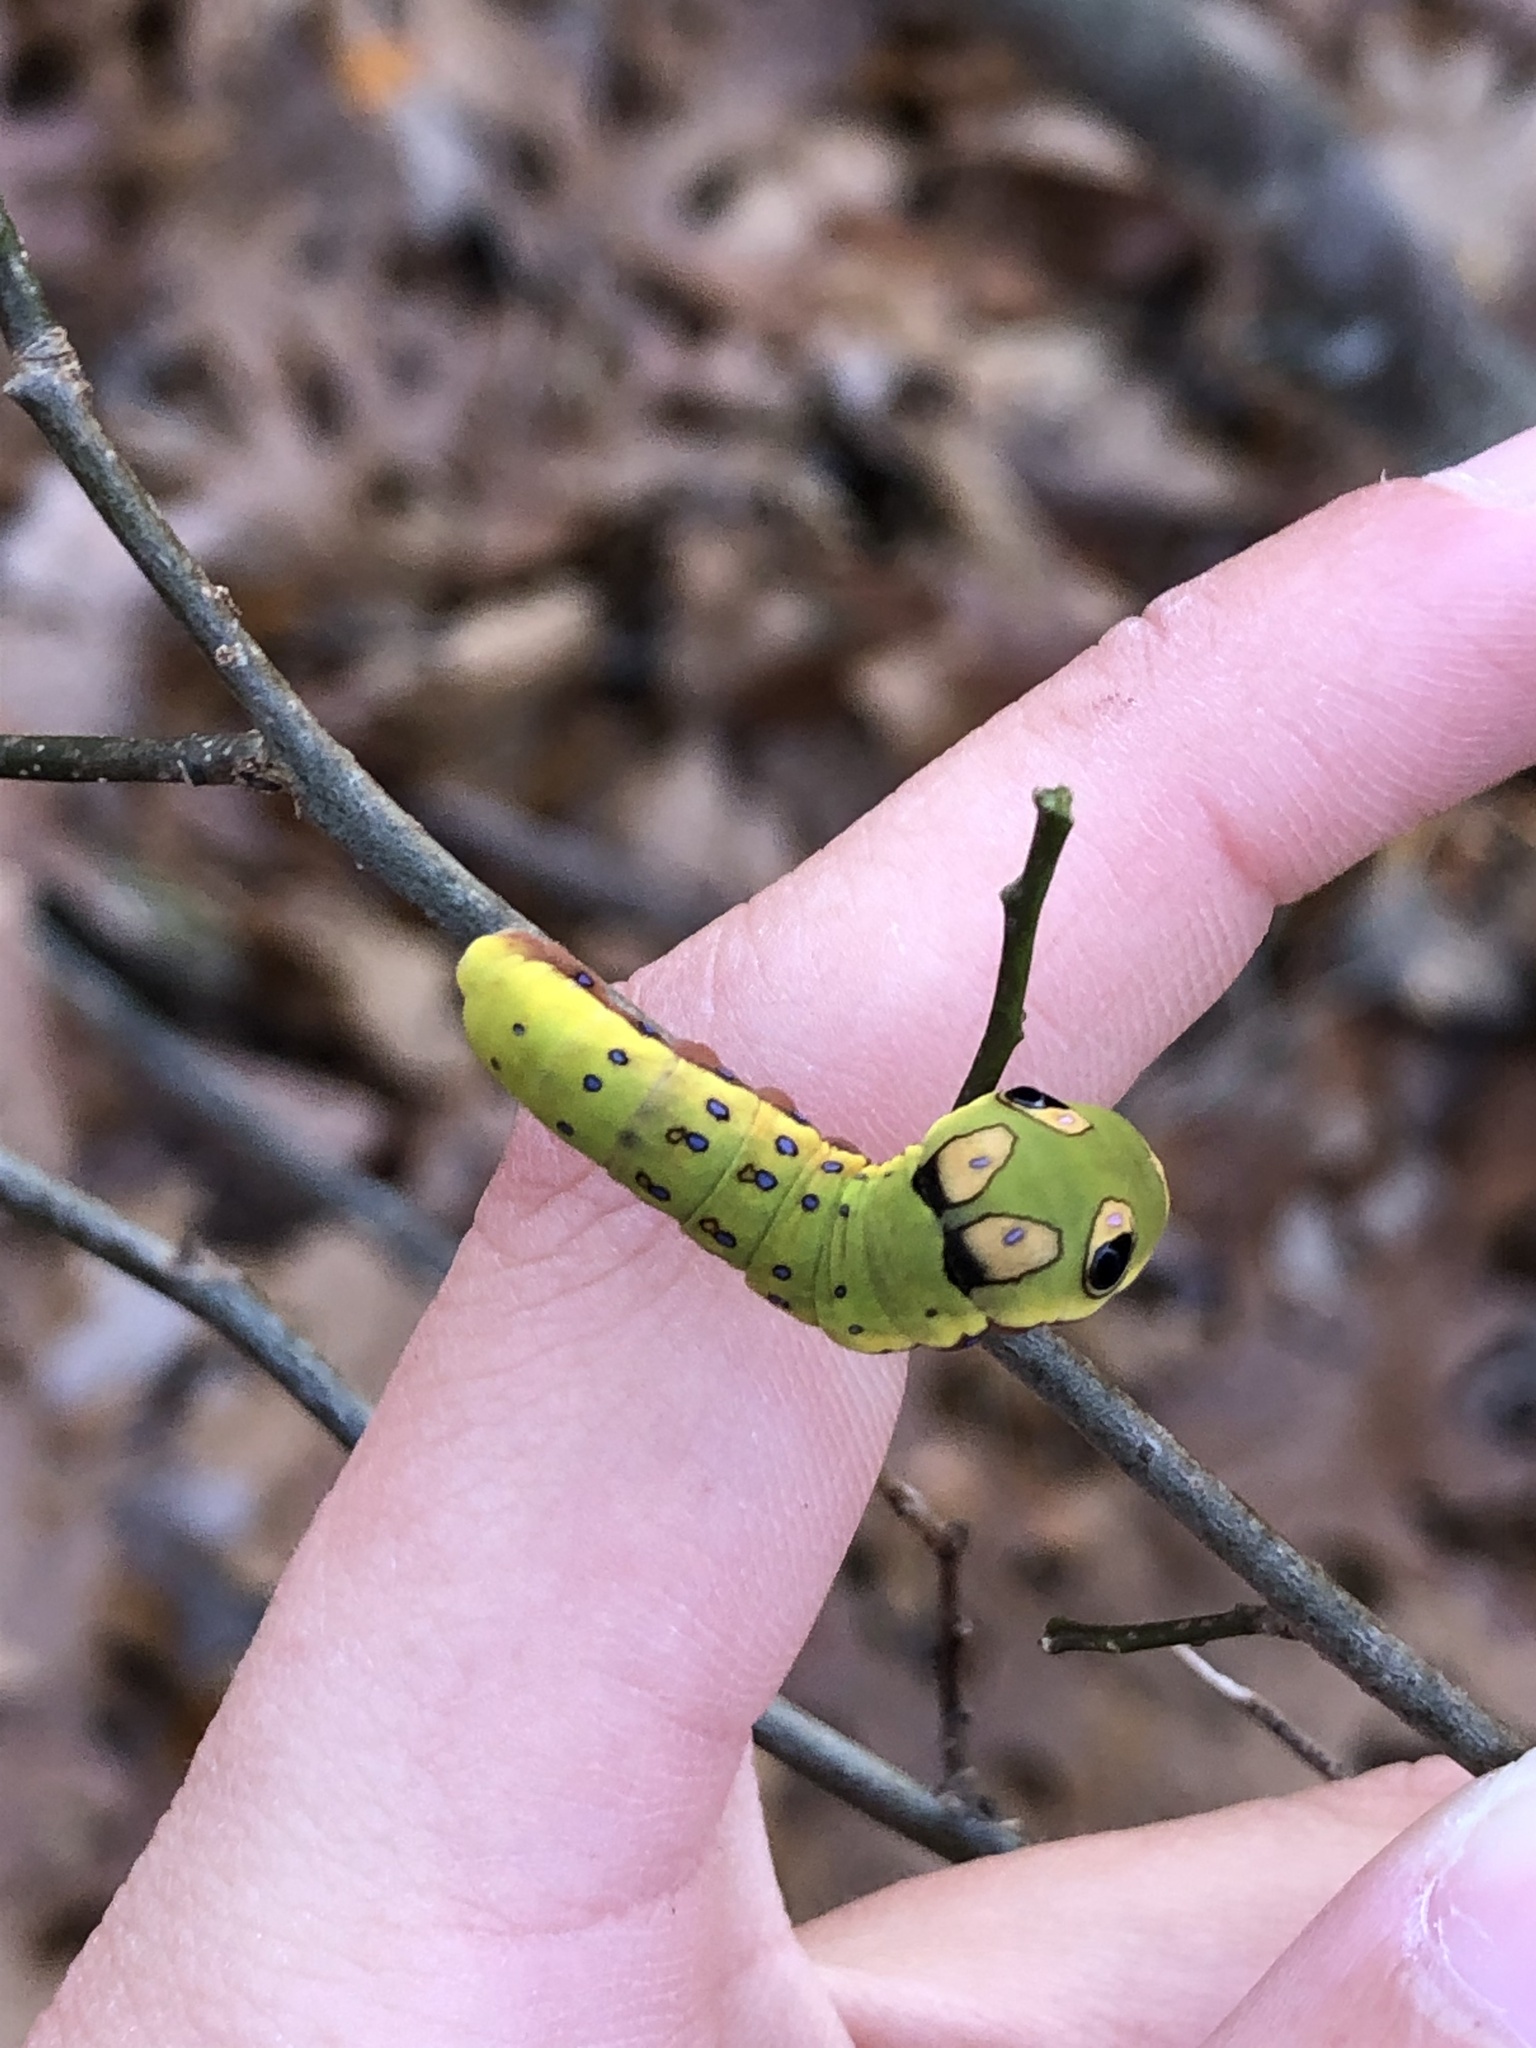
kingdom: Animalia
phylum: Arthropoda
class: Insecta
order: Lepidoptera
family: Papilionidae
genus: Papilio
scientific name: Papilio troilus
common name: Spicebush swallowtail
